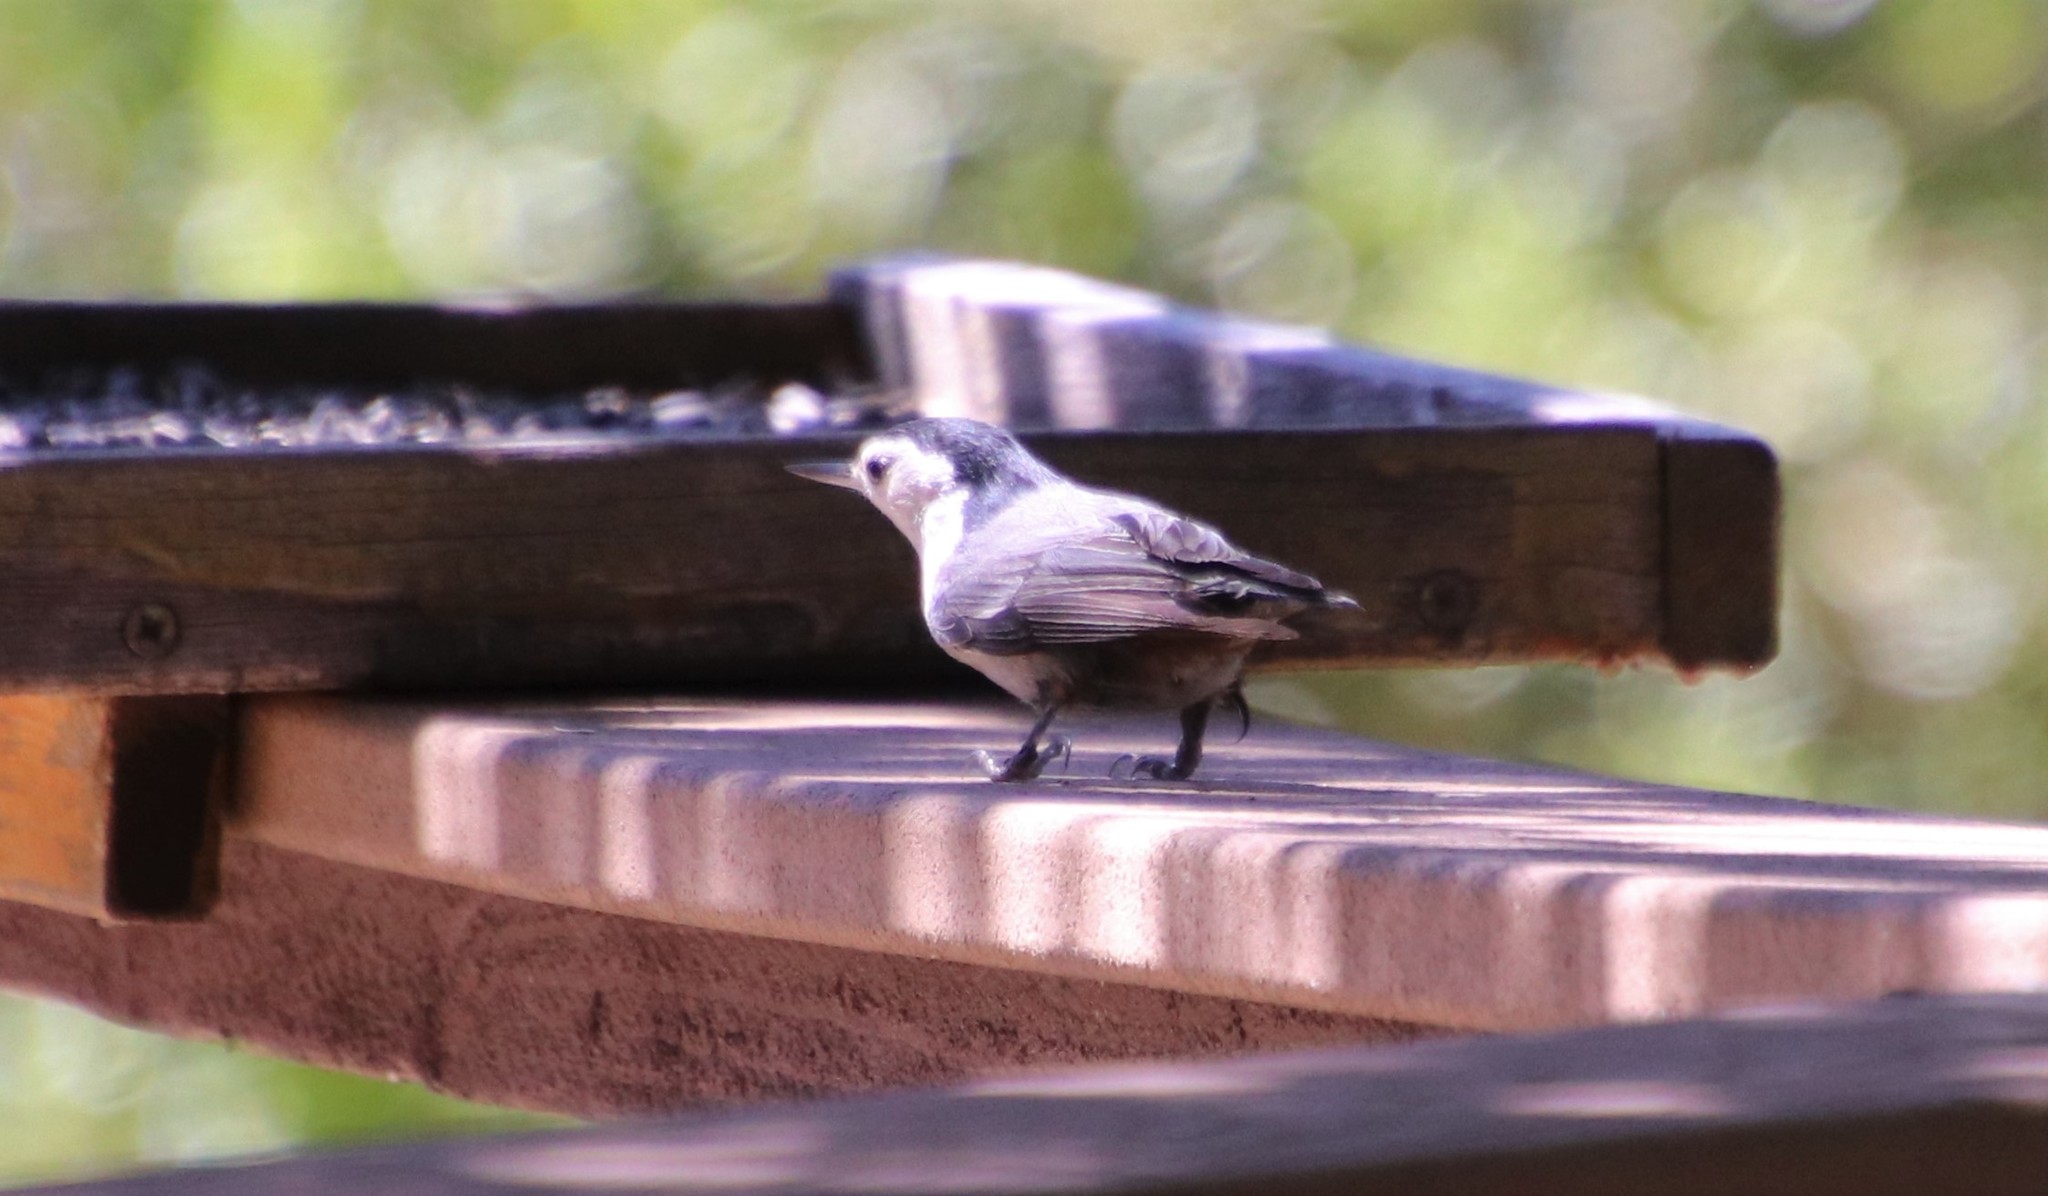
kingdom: Animalia
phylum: Chordata
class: Aves
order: Passeriformes
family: Sittidae
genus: Sitta
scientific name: Sitta carolinensis
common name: White-breasted nuthatch
